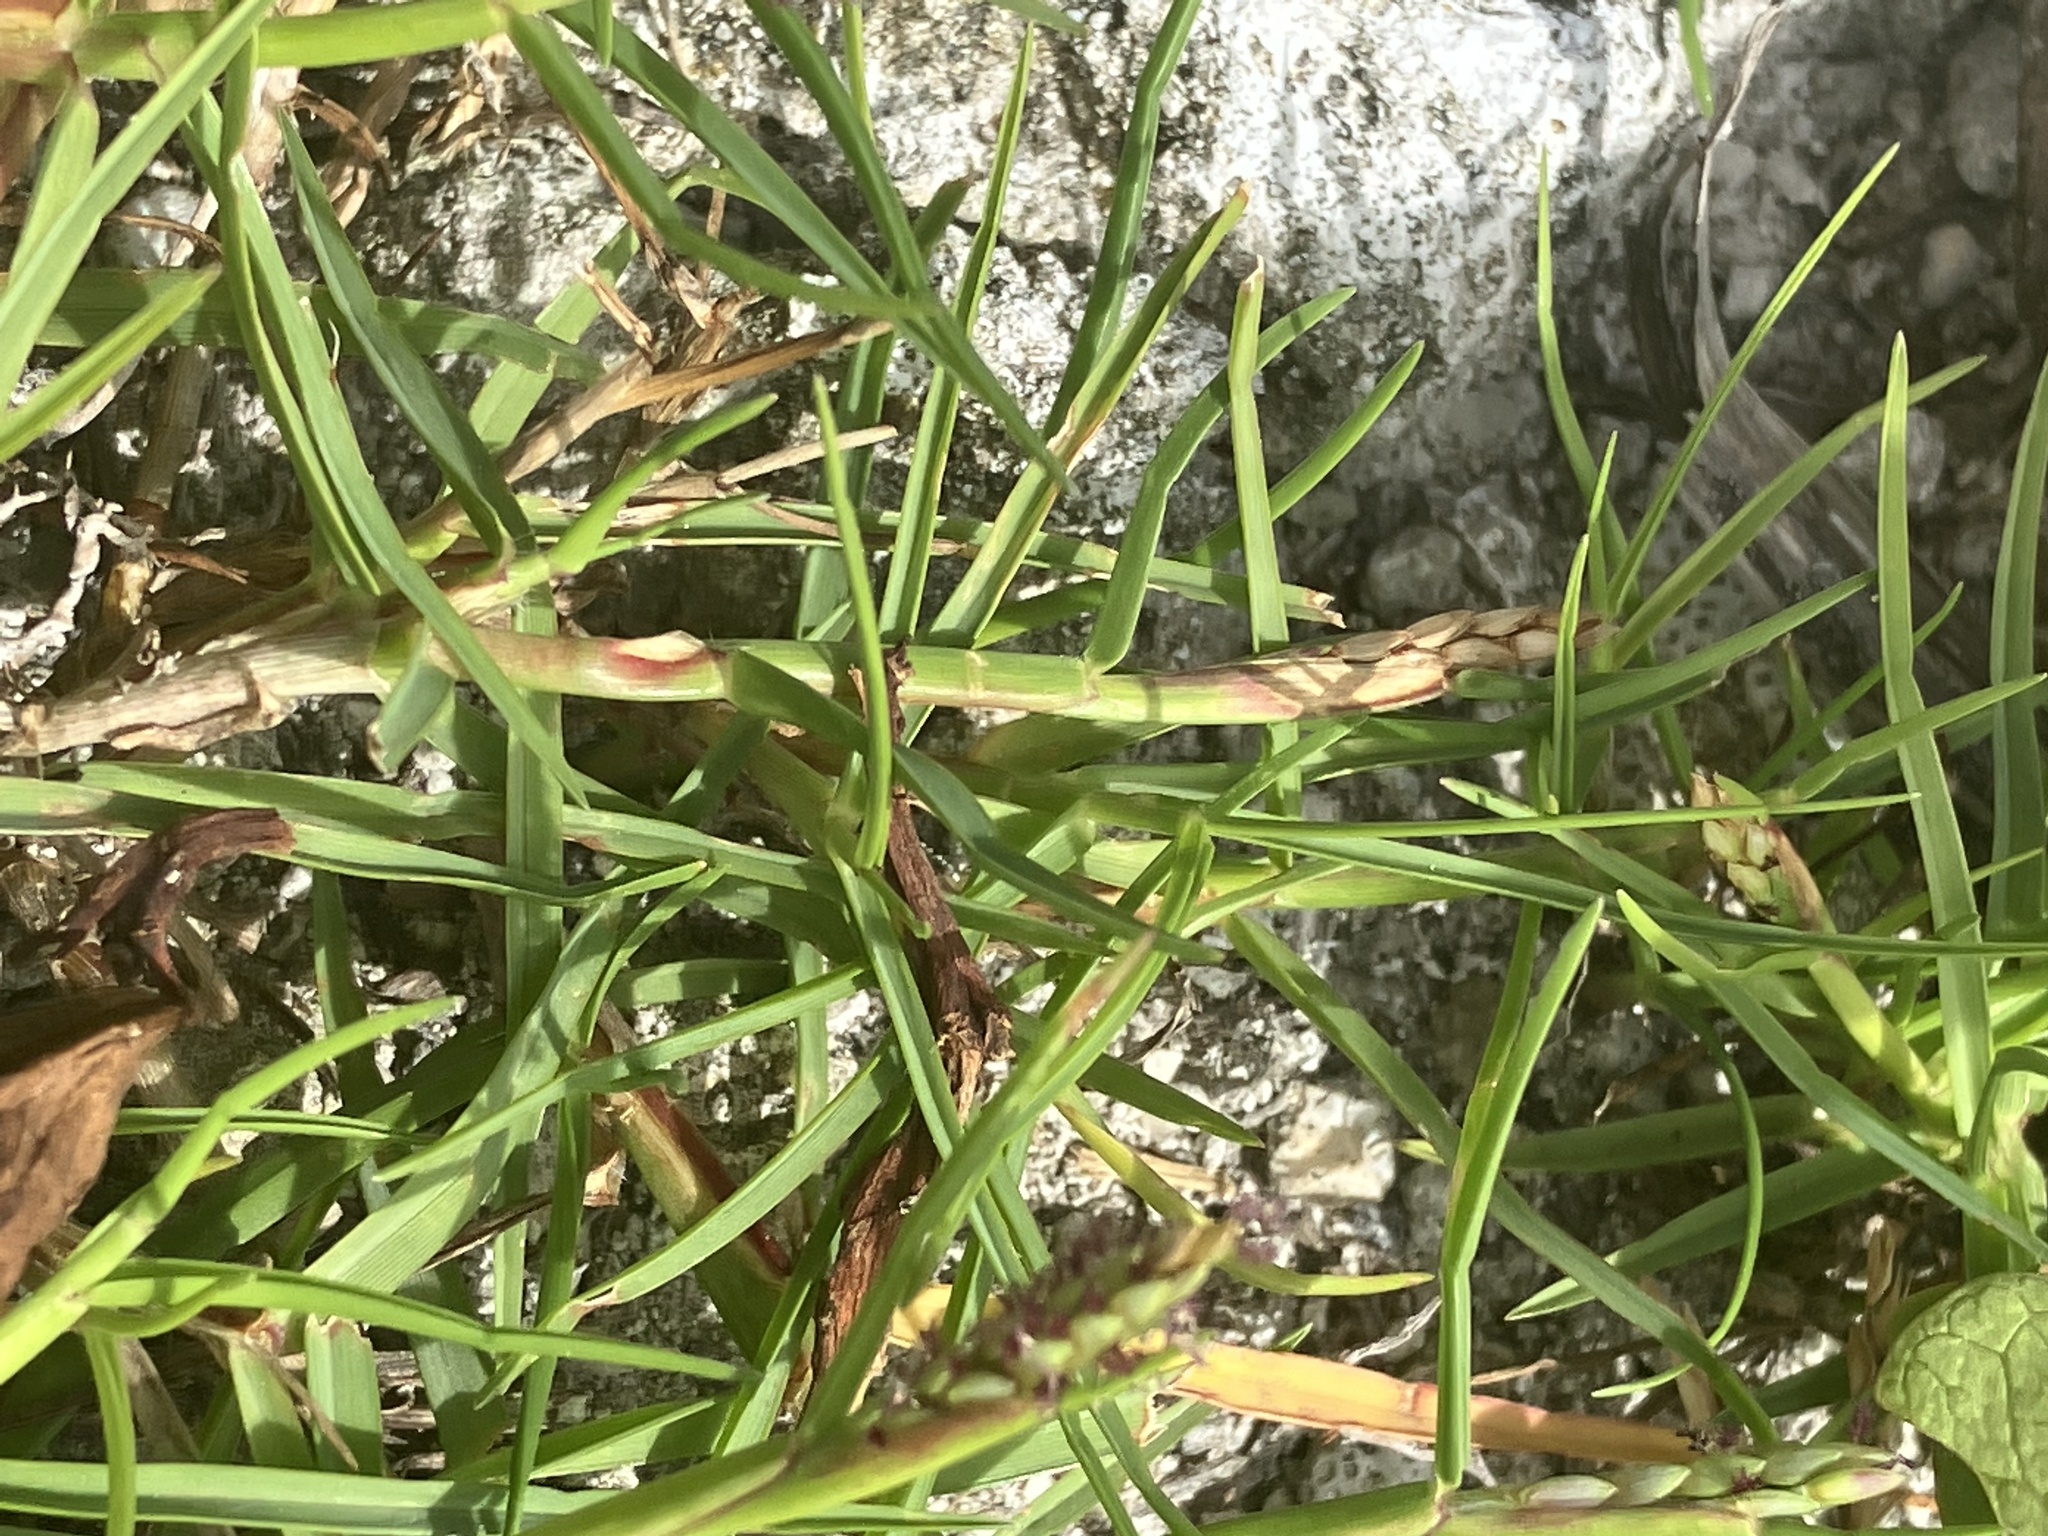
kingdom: Plantae
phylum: Tracheophyta
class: Liliopsida
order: Poales
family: Poaceae
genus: Paspalum
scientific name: Paspalum vaginatum
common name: Seashore paspalum
